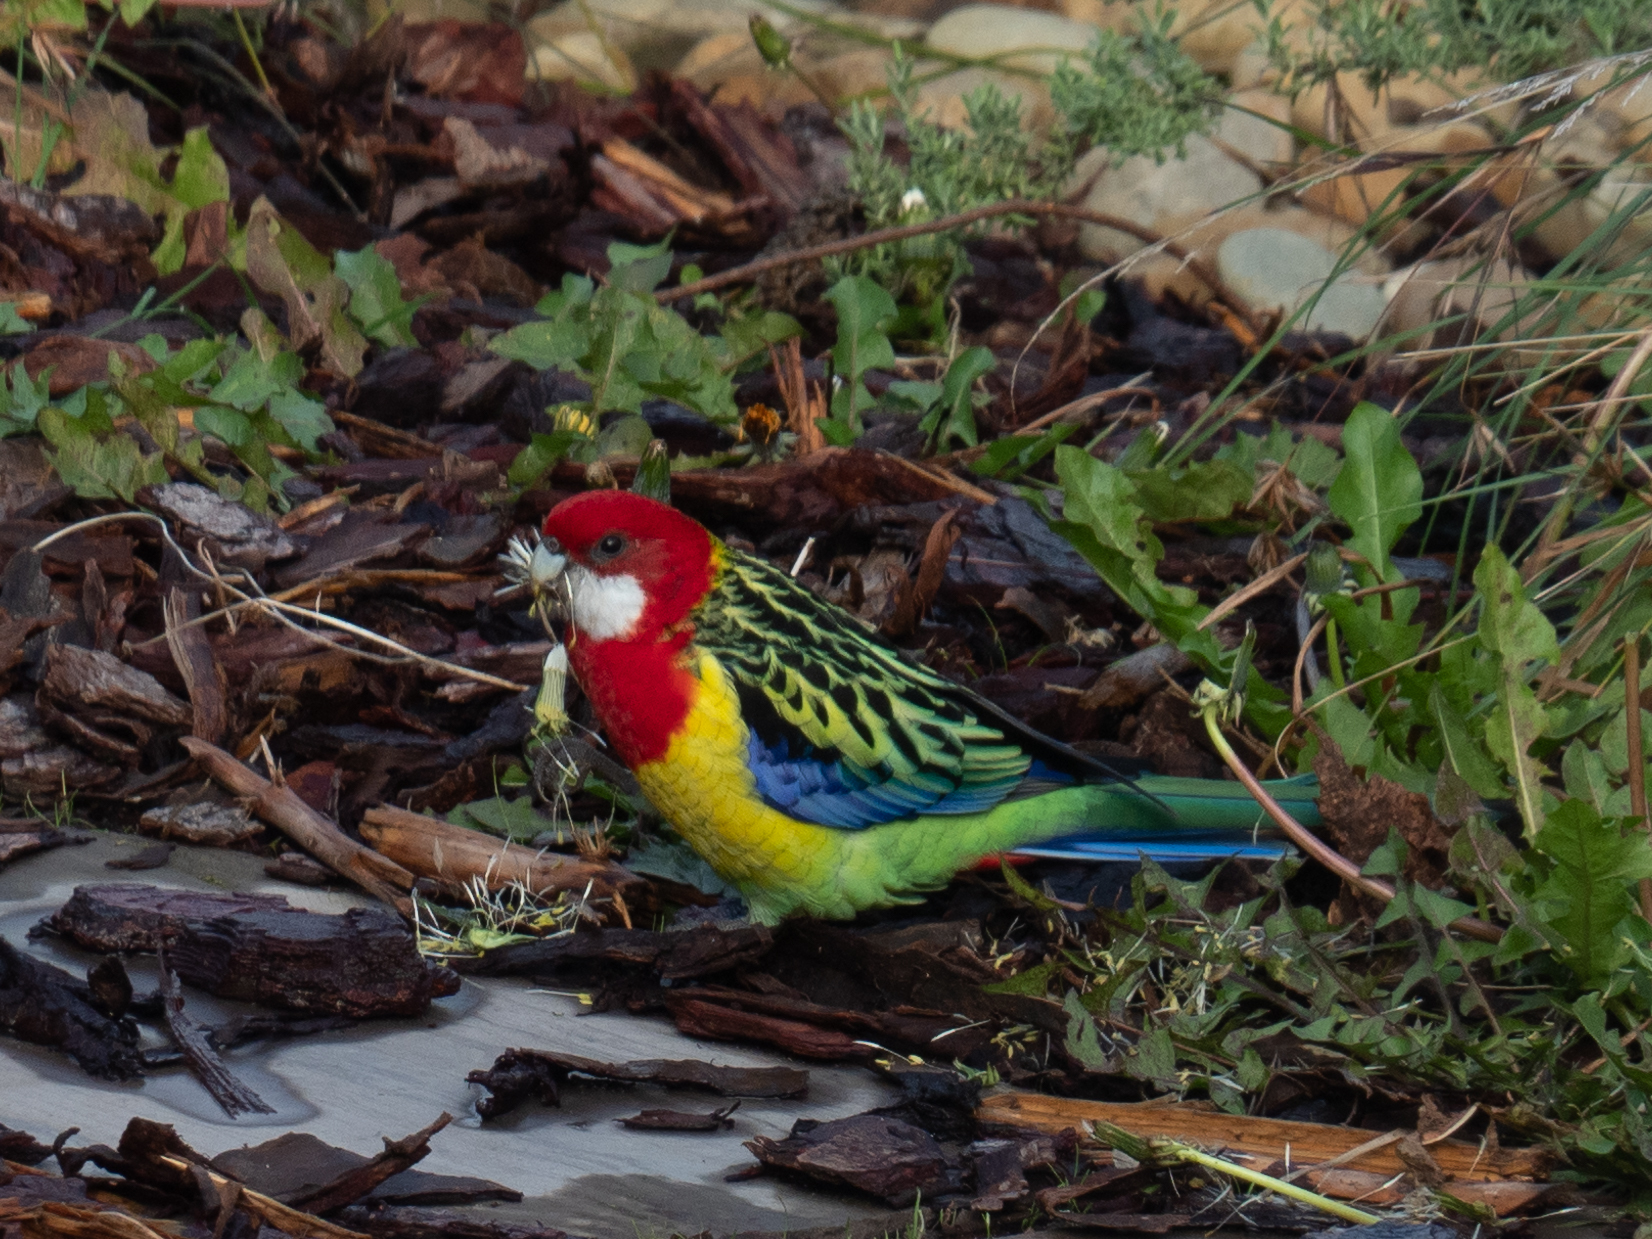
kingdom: Animalia
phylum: Chordata
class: Aves
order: Psittaciformes
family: Psittacidae
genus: Platycercus
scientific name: Platycercus eximius
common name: Eastern rosella
